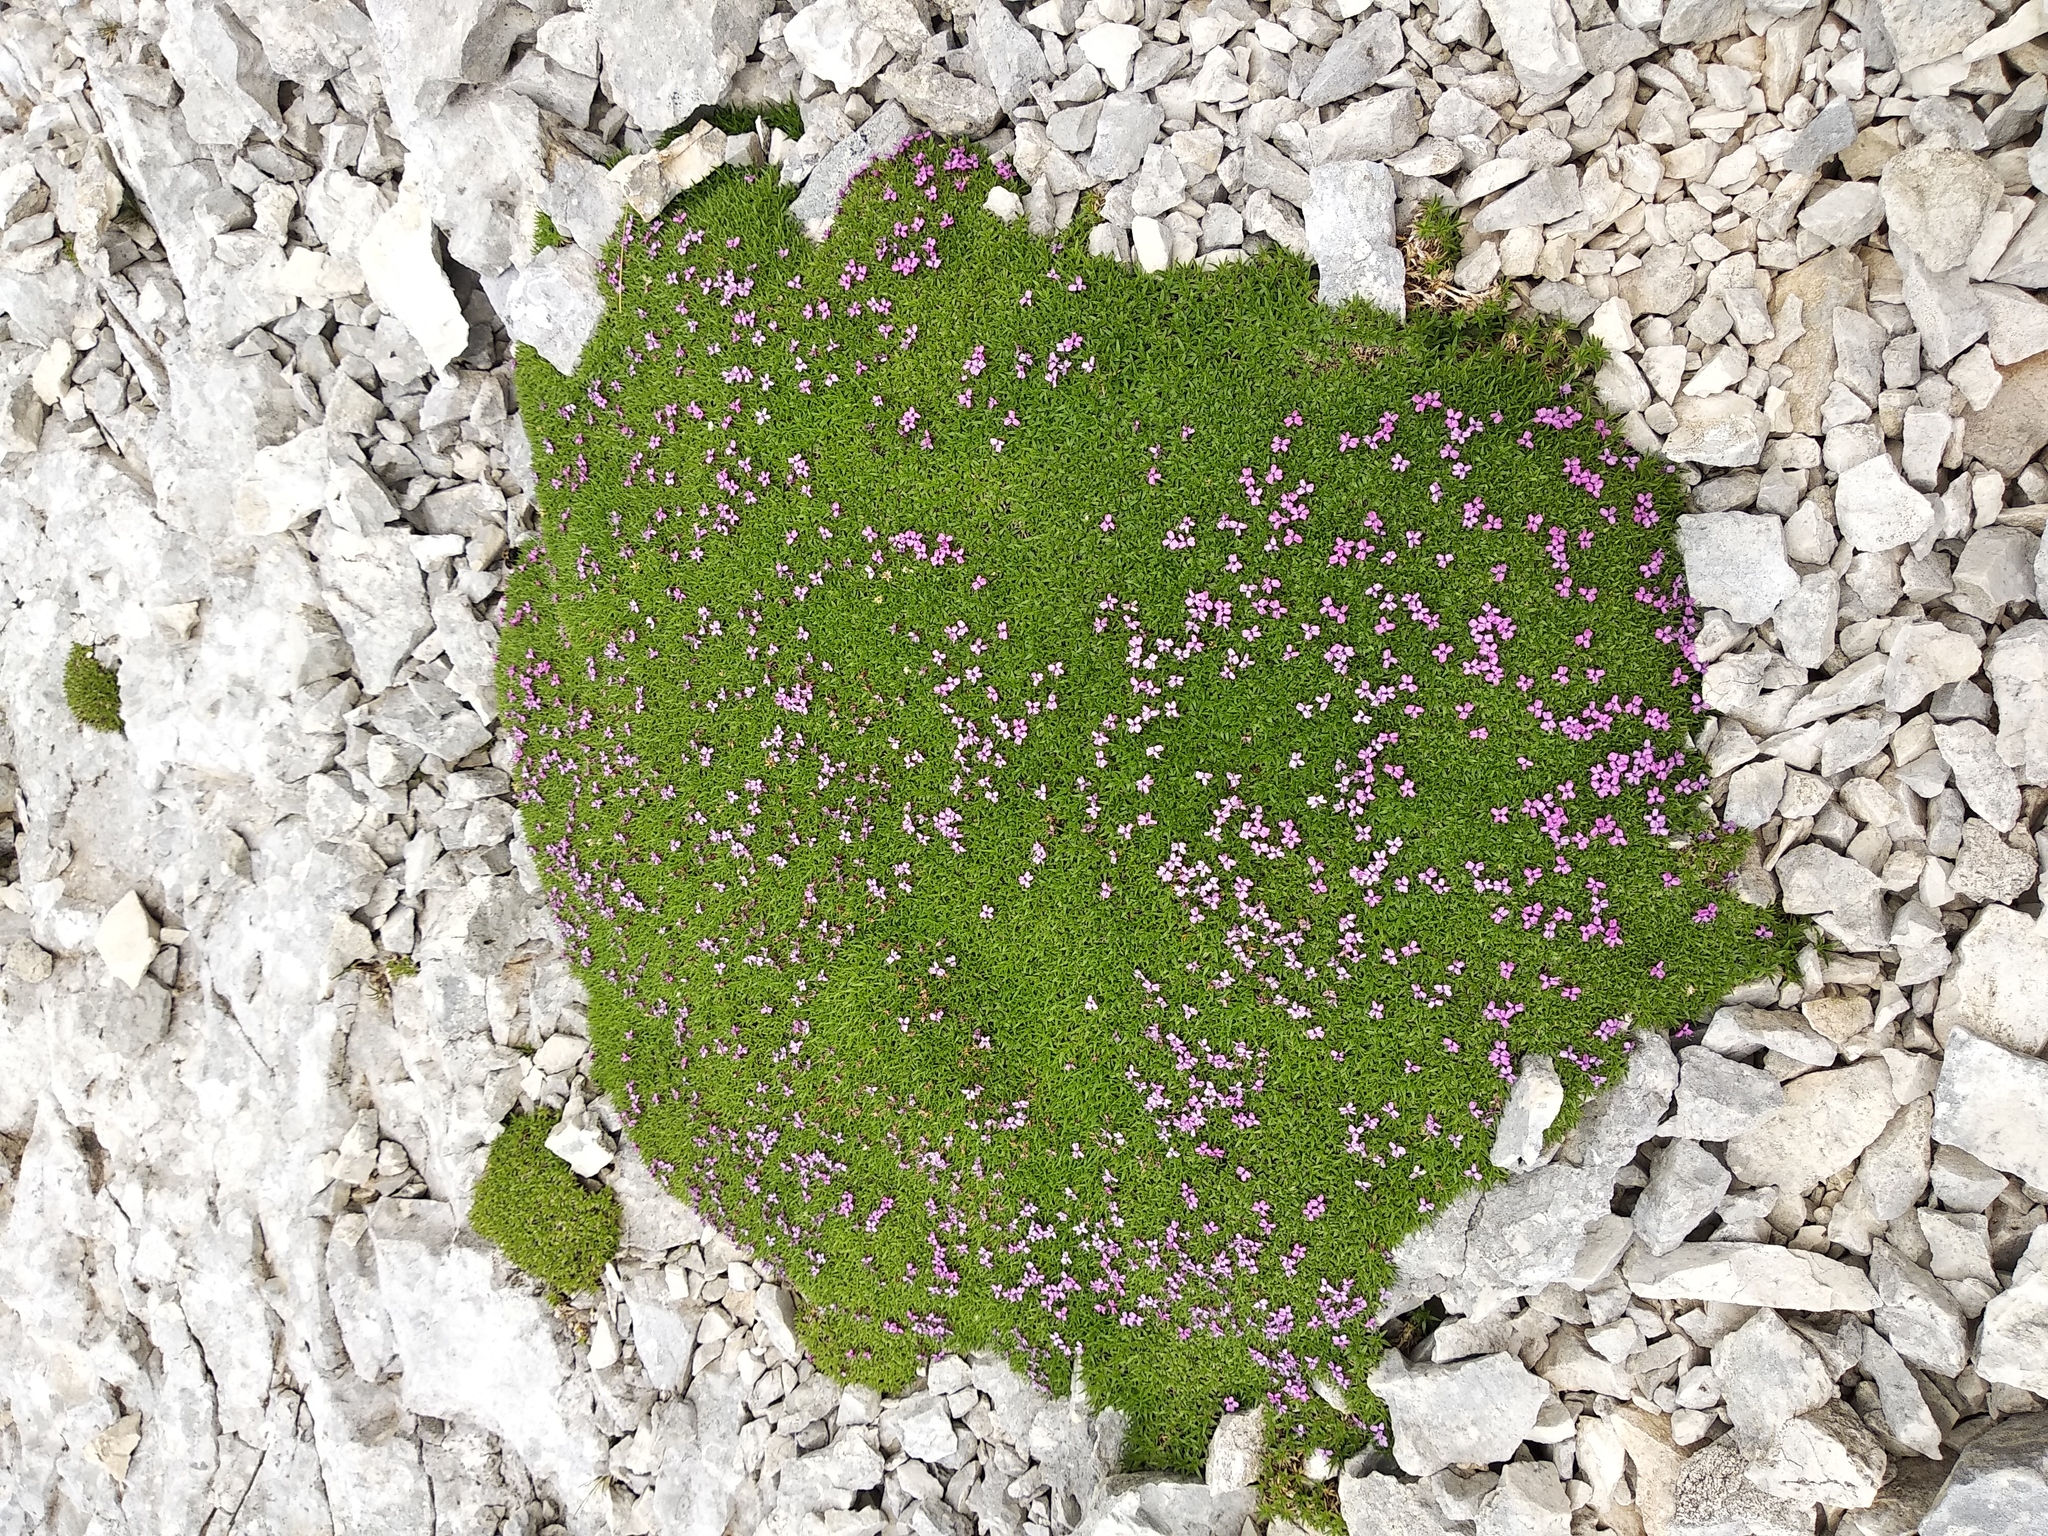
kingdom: Plantae
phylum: Tracheophyta
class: Magnoliopsida
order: Caryophyllales
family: Caryophyllaceae
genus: Silene
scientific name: Silene acaulis
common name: Moss campion
